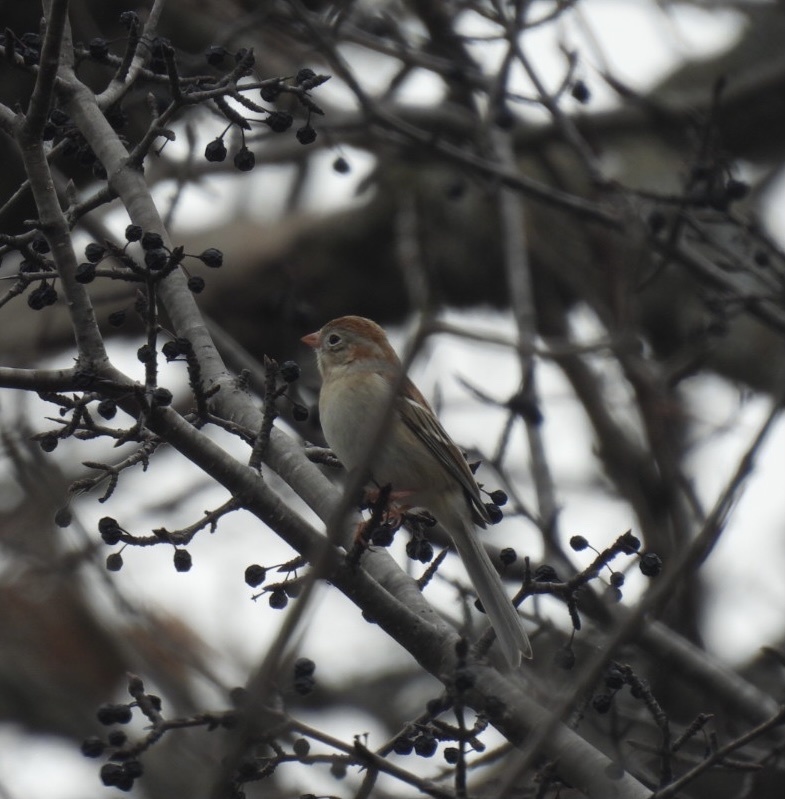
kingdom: Animalia
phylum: Chordata
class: Aves
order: Passeriformes
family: Passerellidae
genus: Spizella
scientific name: Spizella pusilla
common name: Field sparrow
